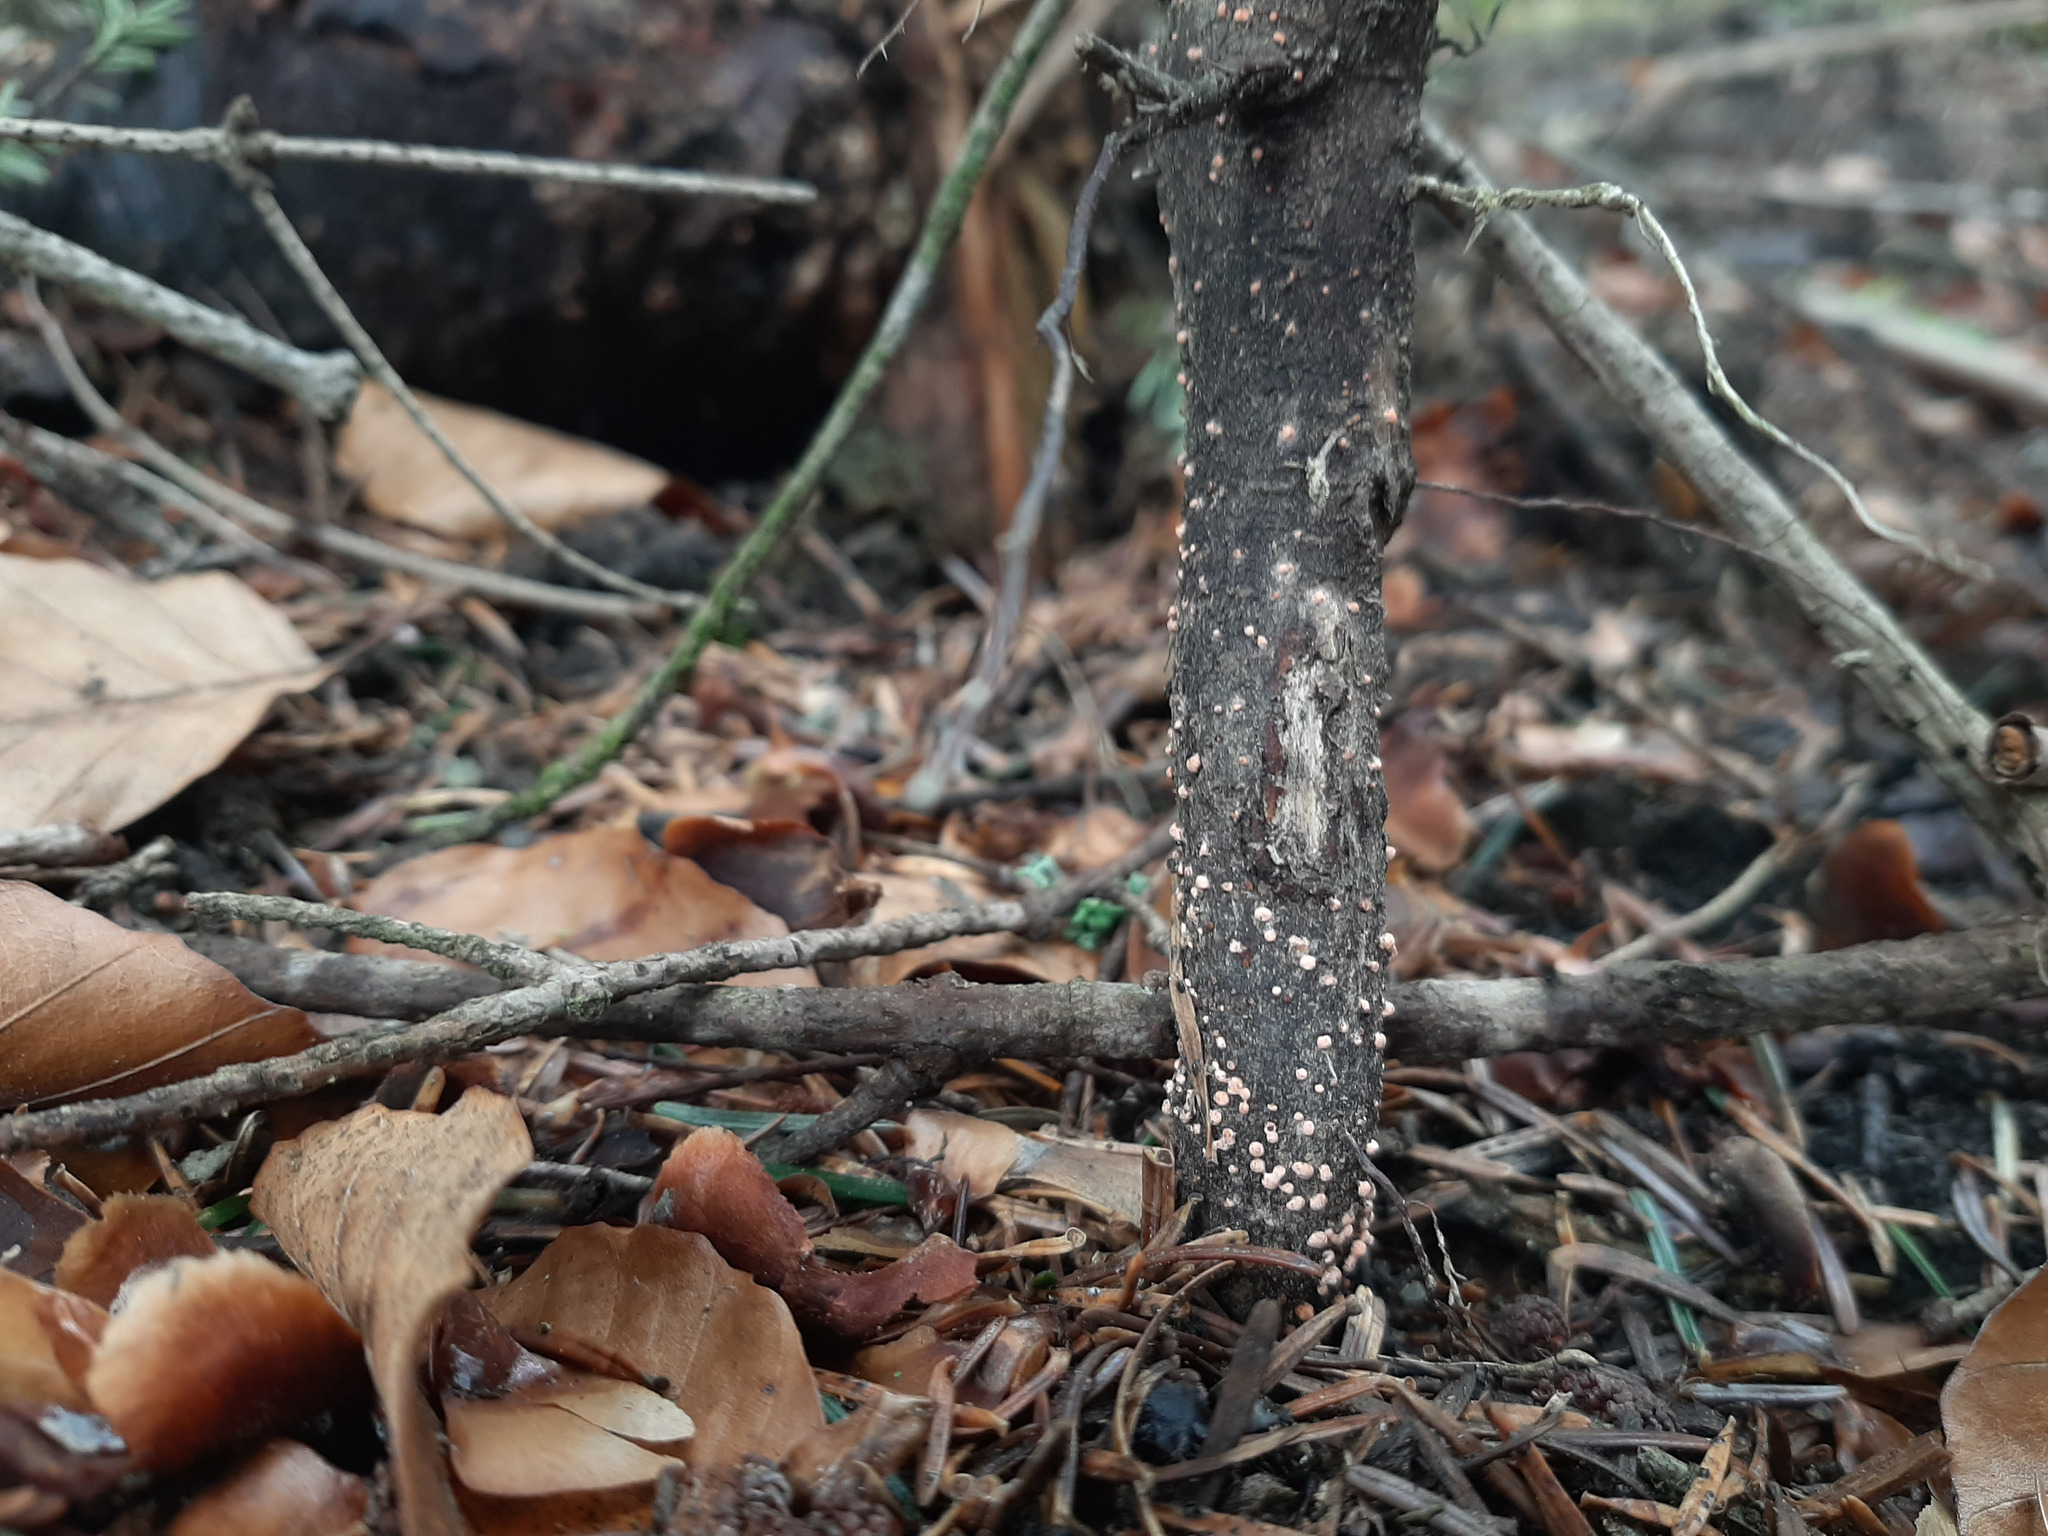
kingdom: Fungi
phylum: Ascomycota
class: Sordariomycetes
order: Hypocreales
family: Nectriaceae
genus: Nectria
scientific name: Nectria cinnabarina
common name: Coral spot
